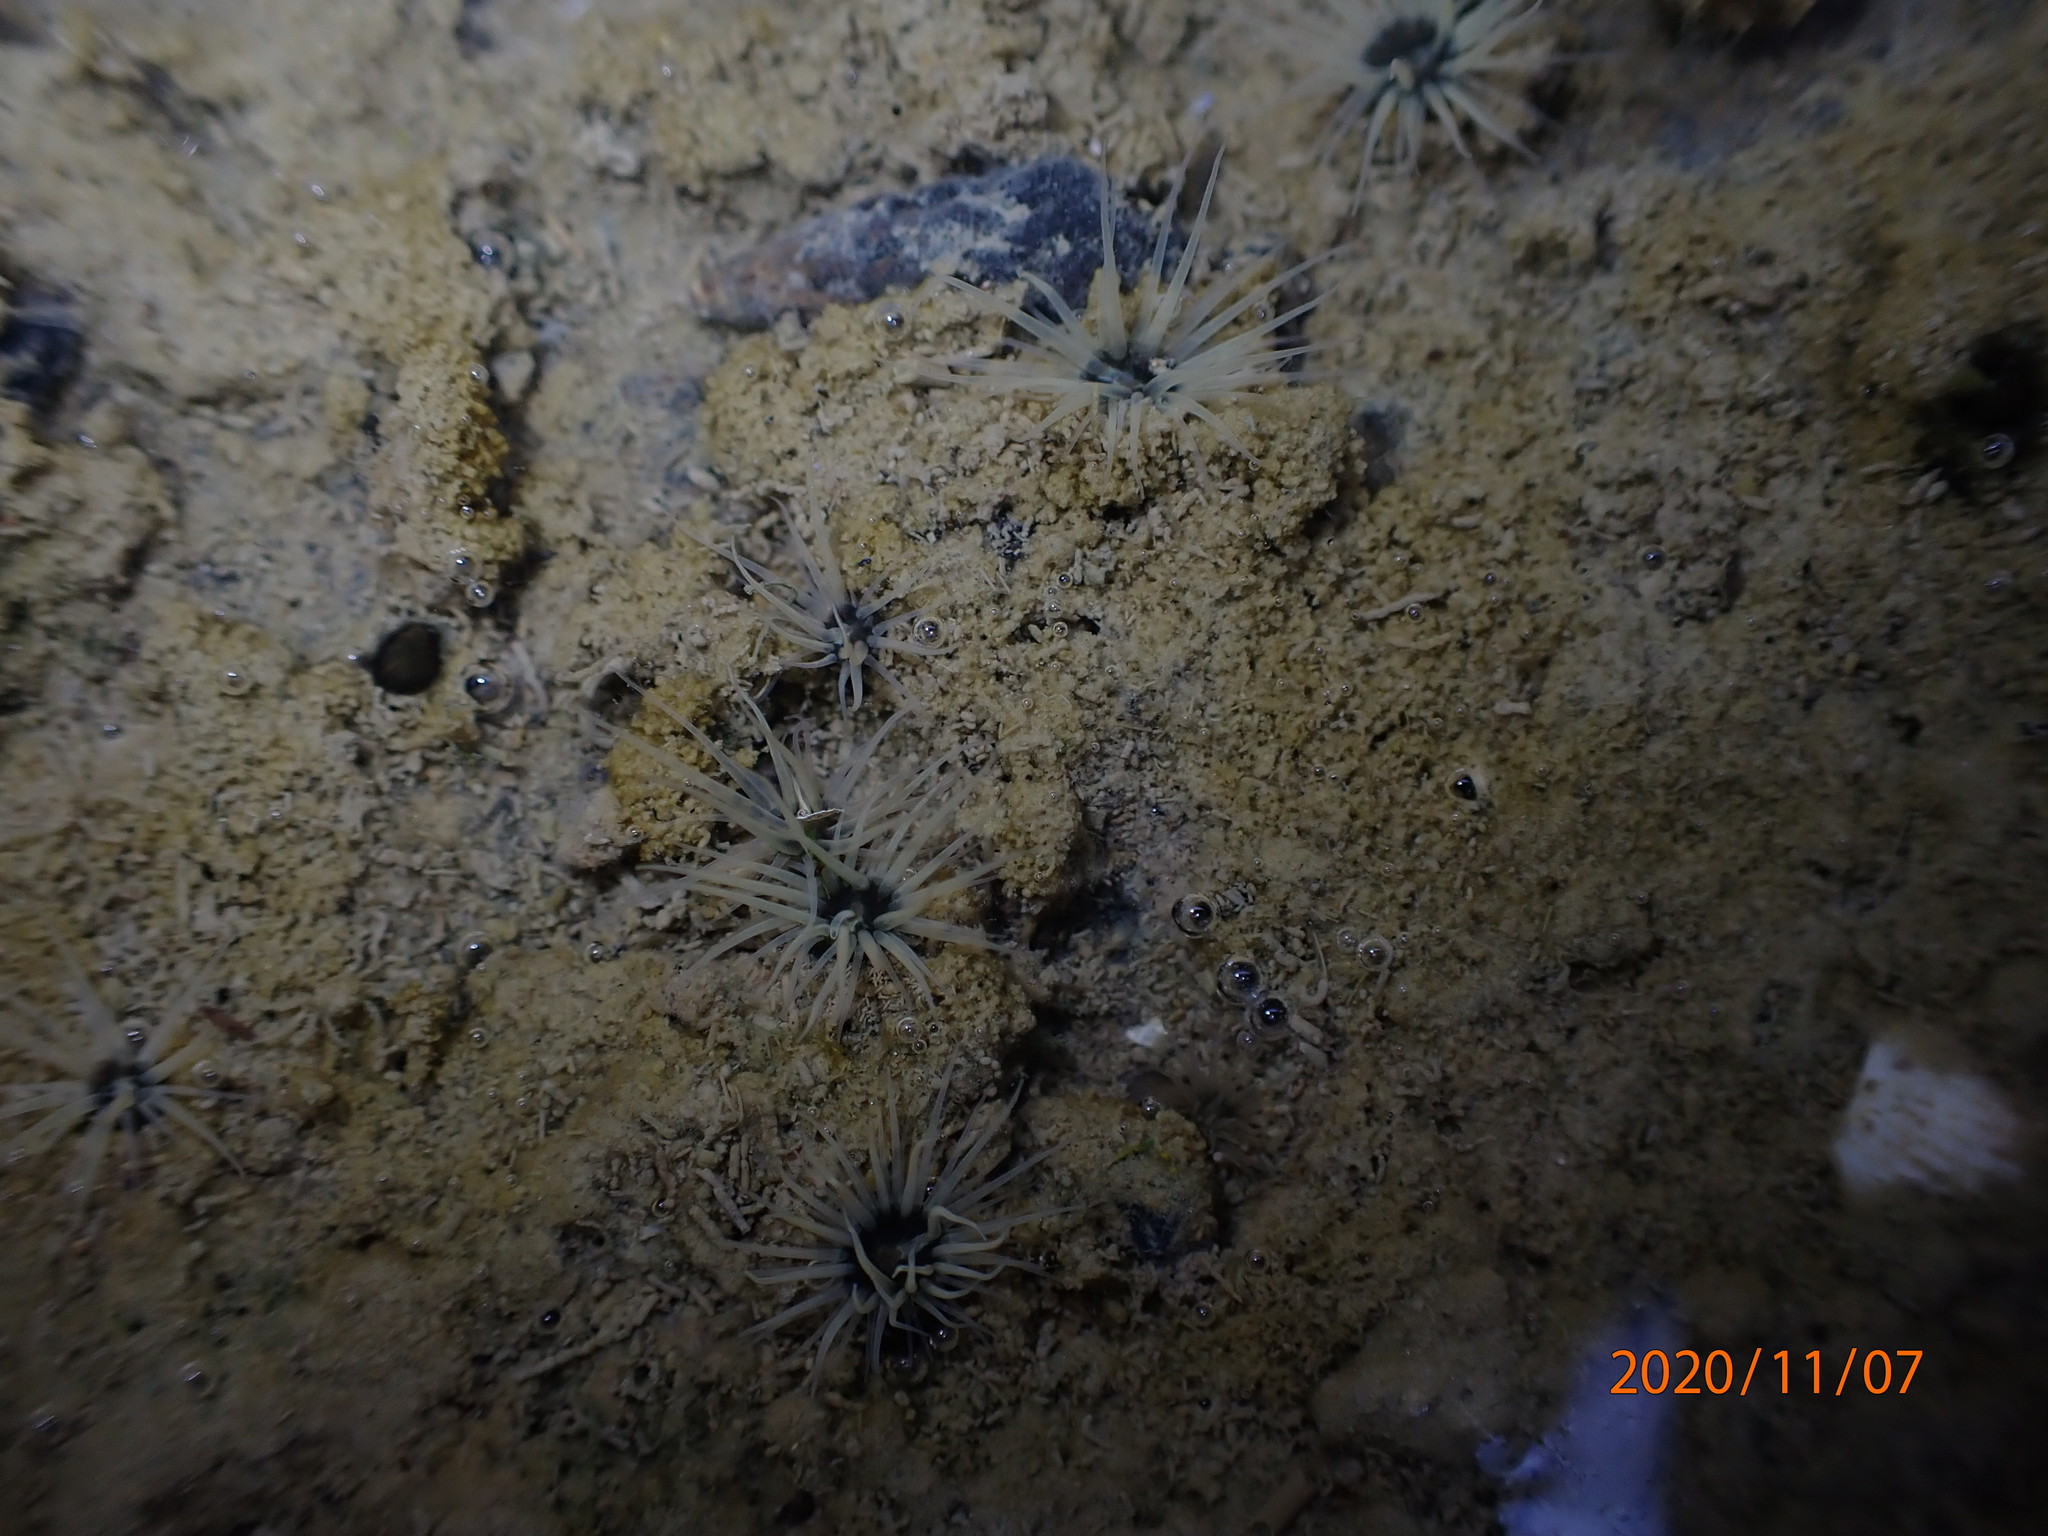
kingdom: Animalia
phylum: Cnidaria
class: Anthozoa
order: Actiniaria
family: Diadumenidae
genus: Diadumene
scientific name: Diadumene lineata
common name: Orange-striped anemone
